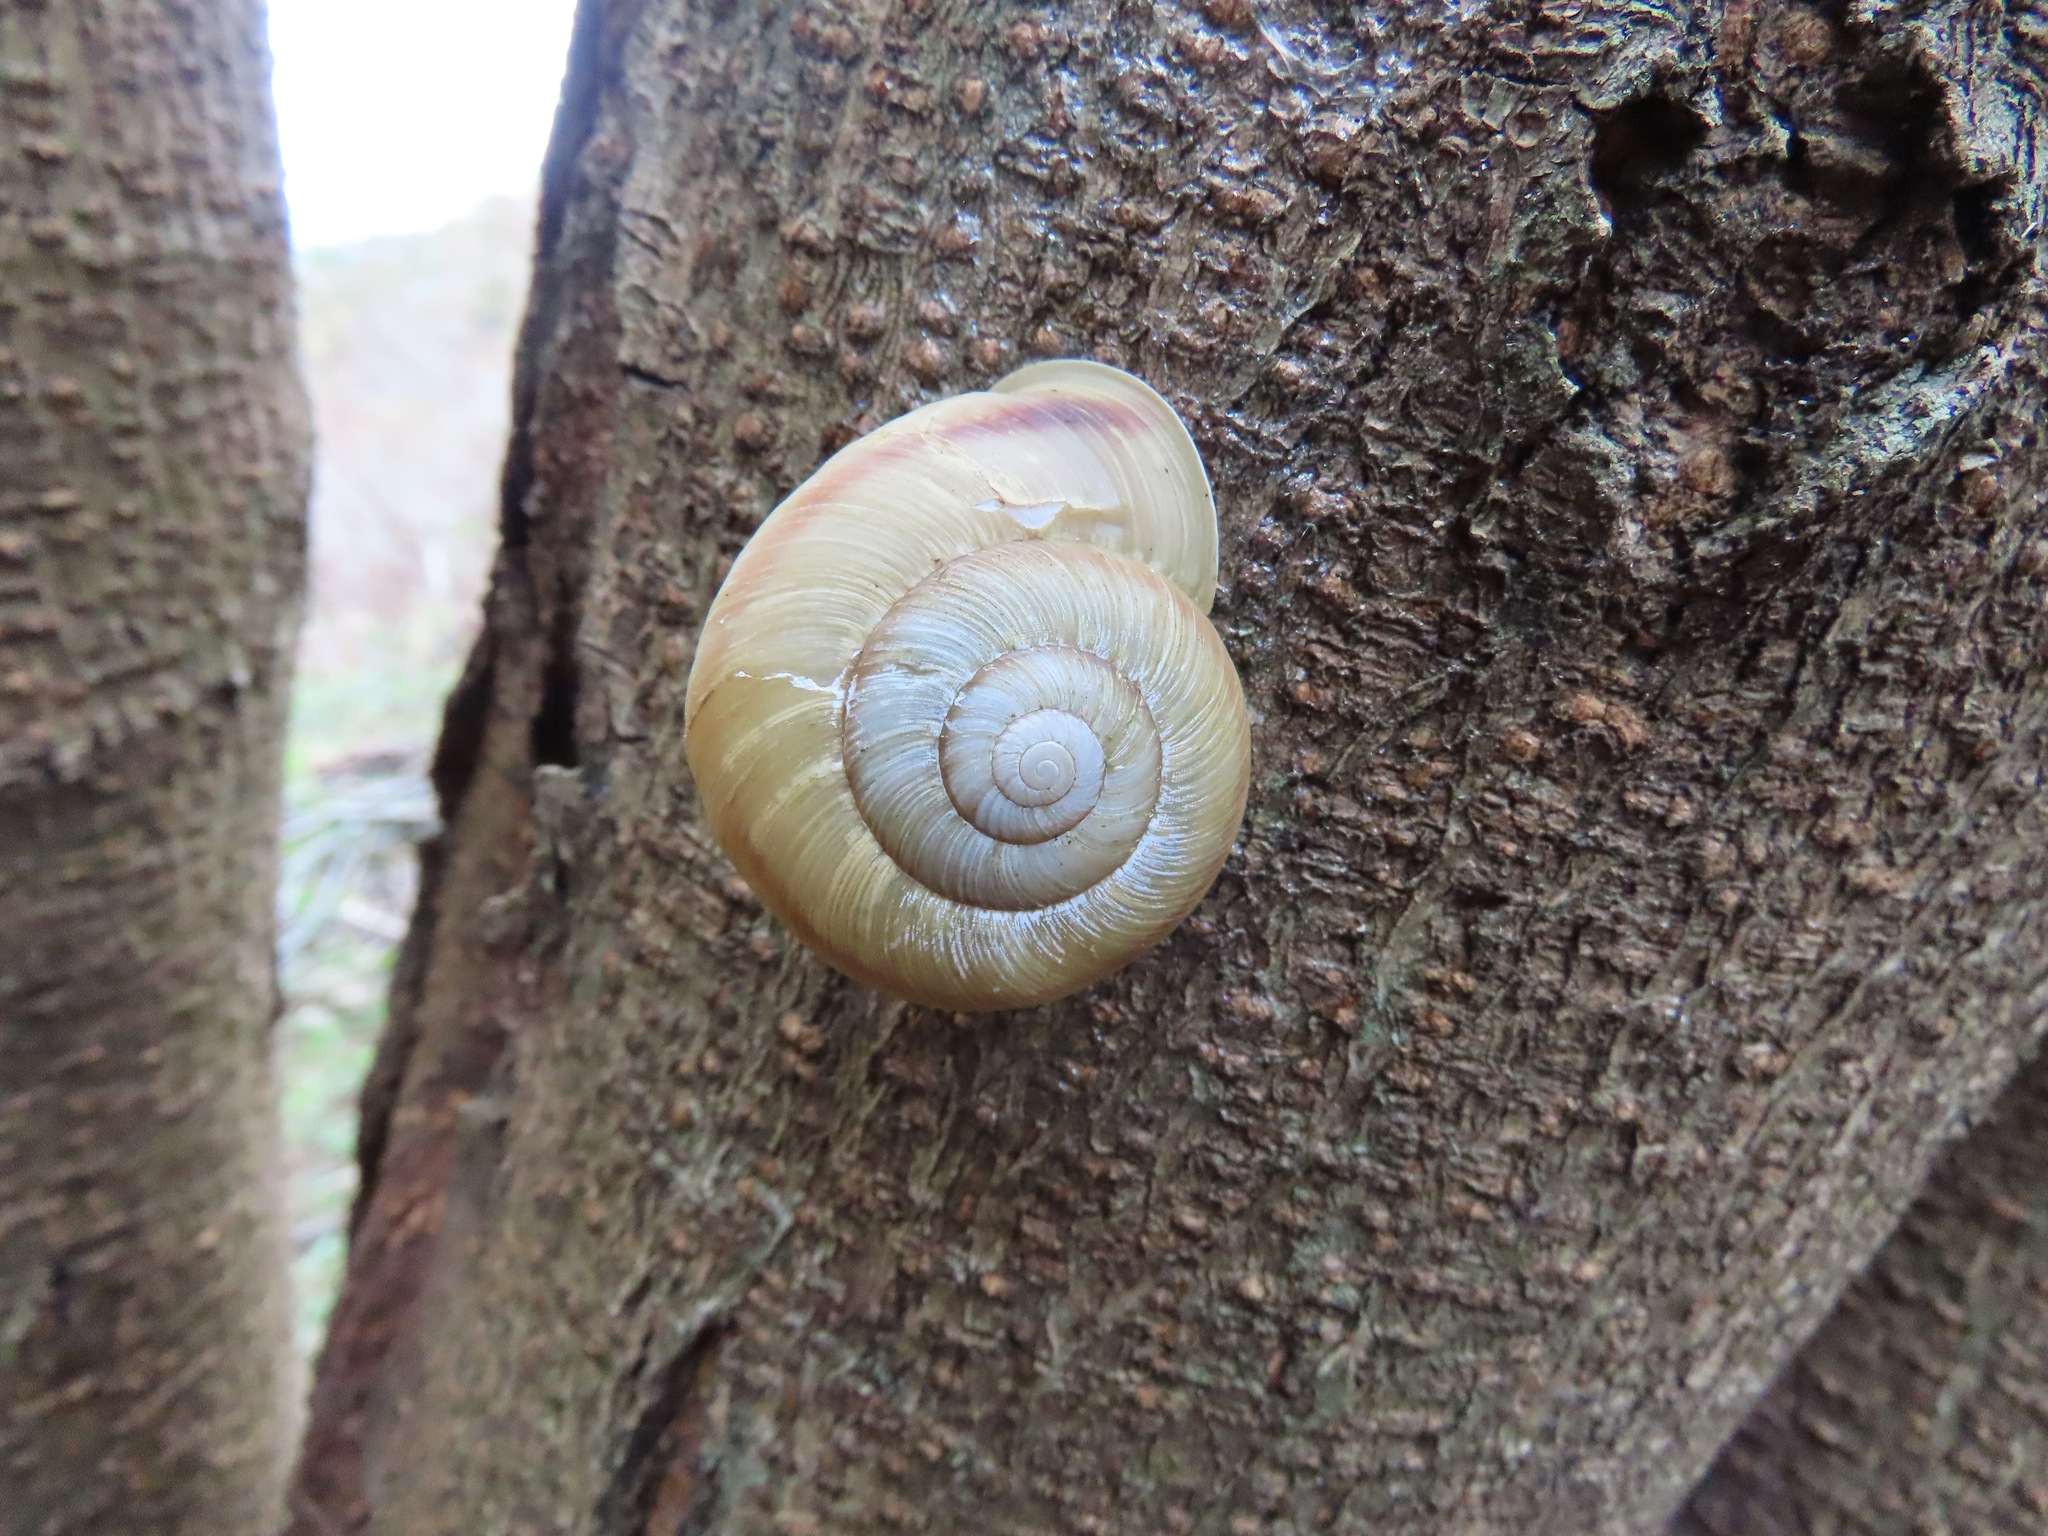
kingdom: Animalia
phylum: Mollusca
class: Gastropoda
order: Stylommatophora
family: Camaenidae
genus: Euhadra
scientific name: Euhadra peliomphala
